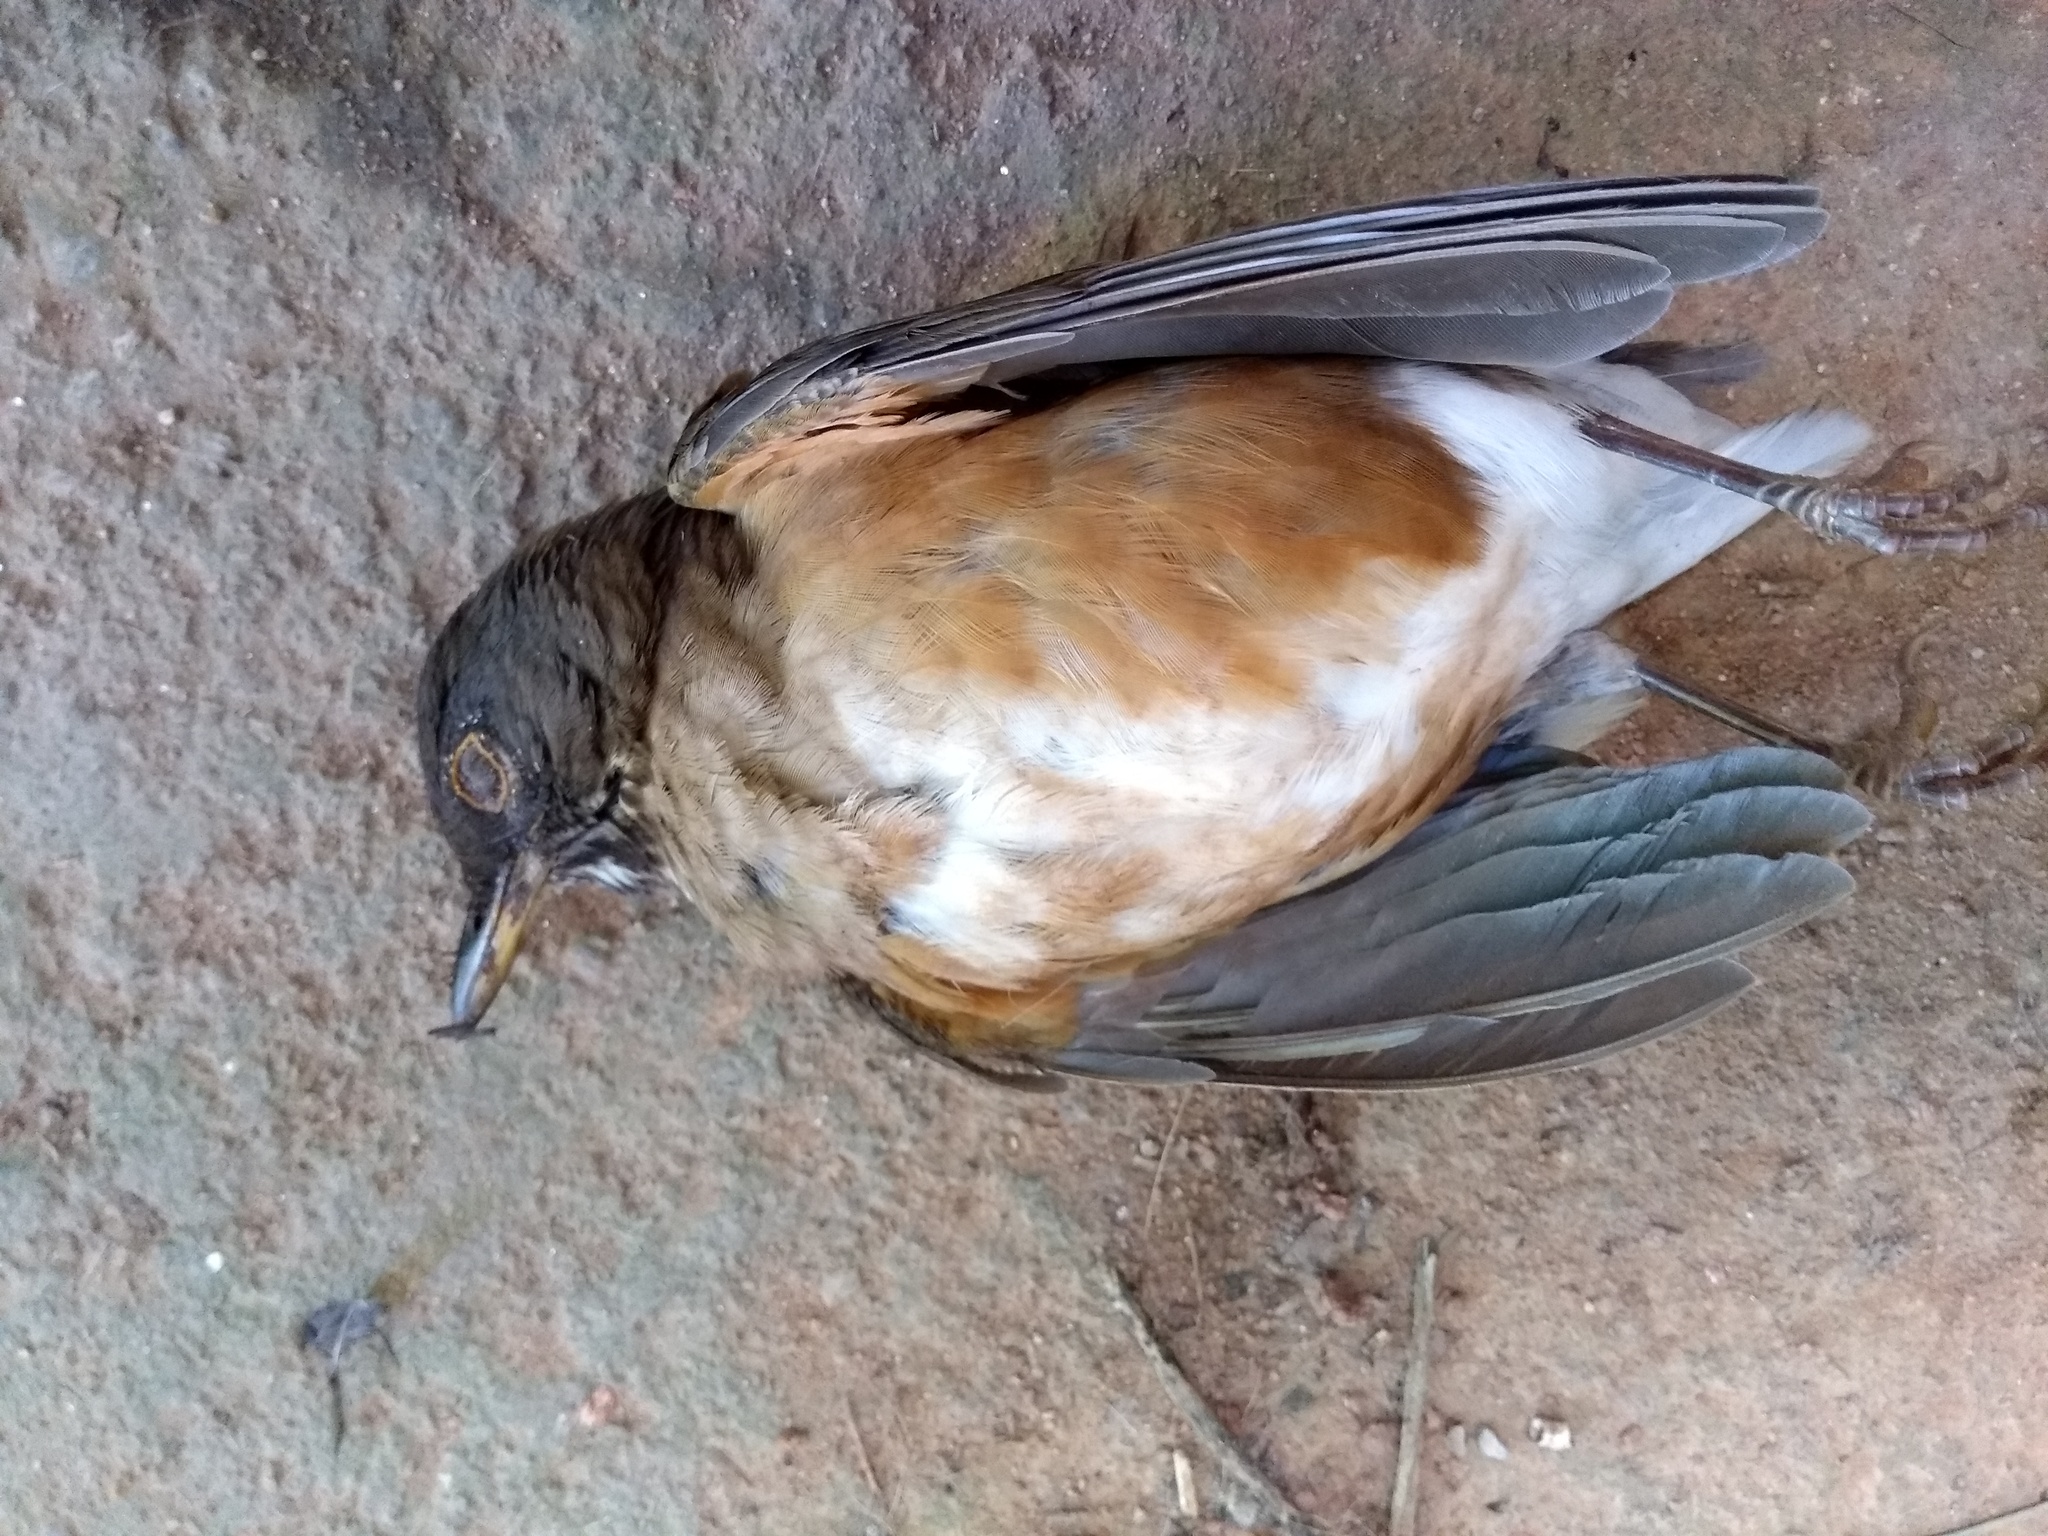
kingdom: Animalia
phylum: Chordata
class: Aves
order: Passeriformes
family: Turdidae
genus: Turdus
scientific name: Turdus albicollis
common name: White-necked thrush
